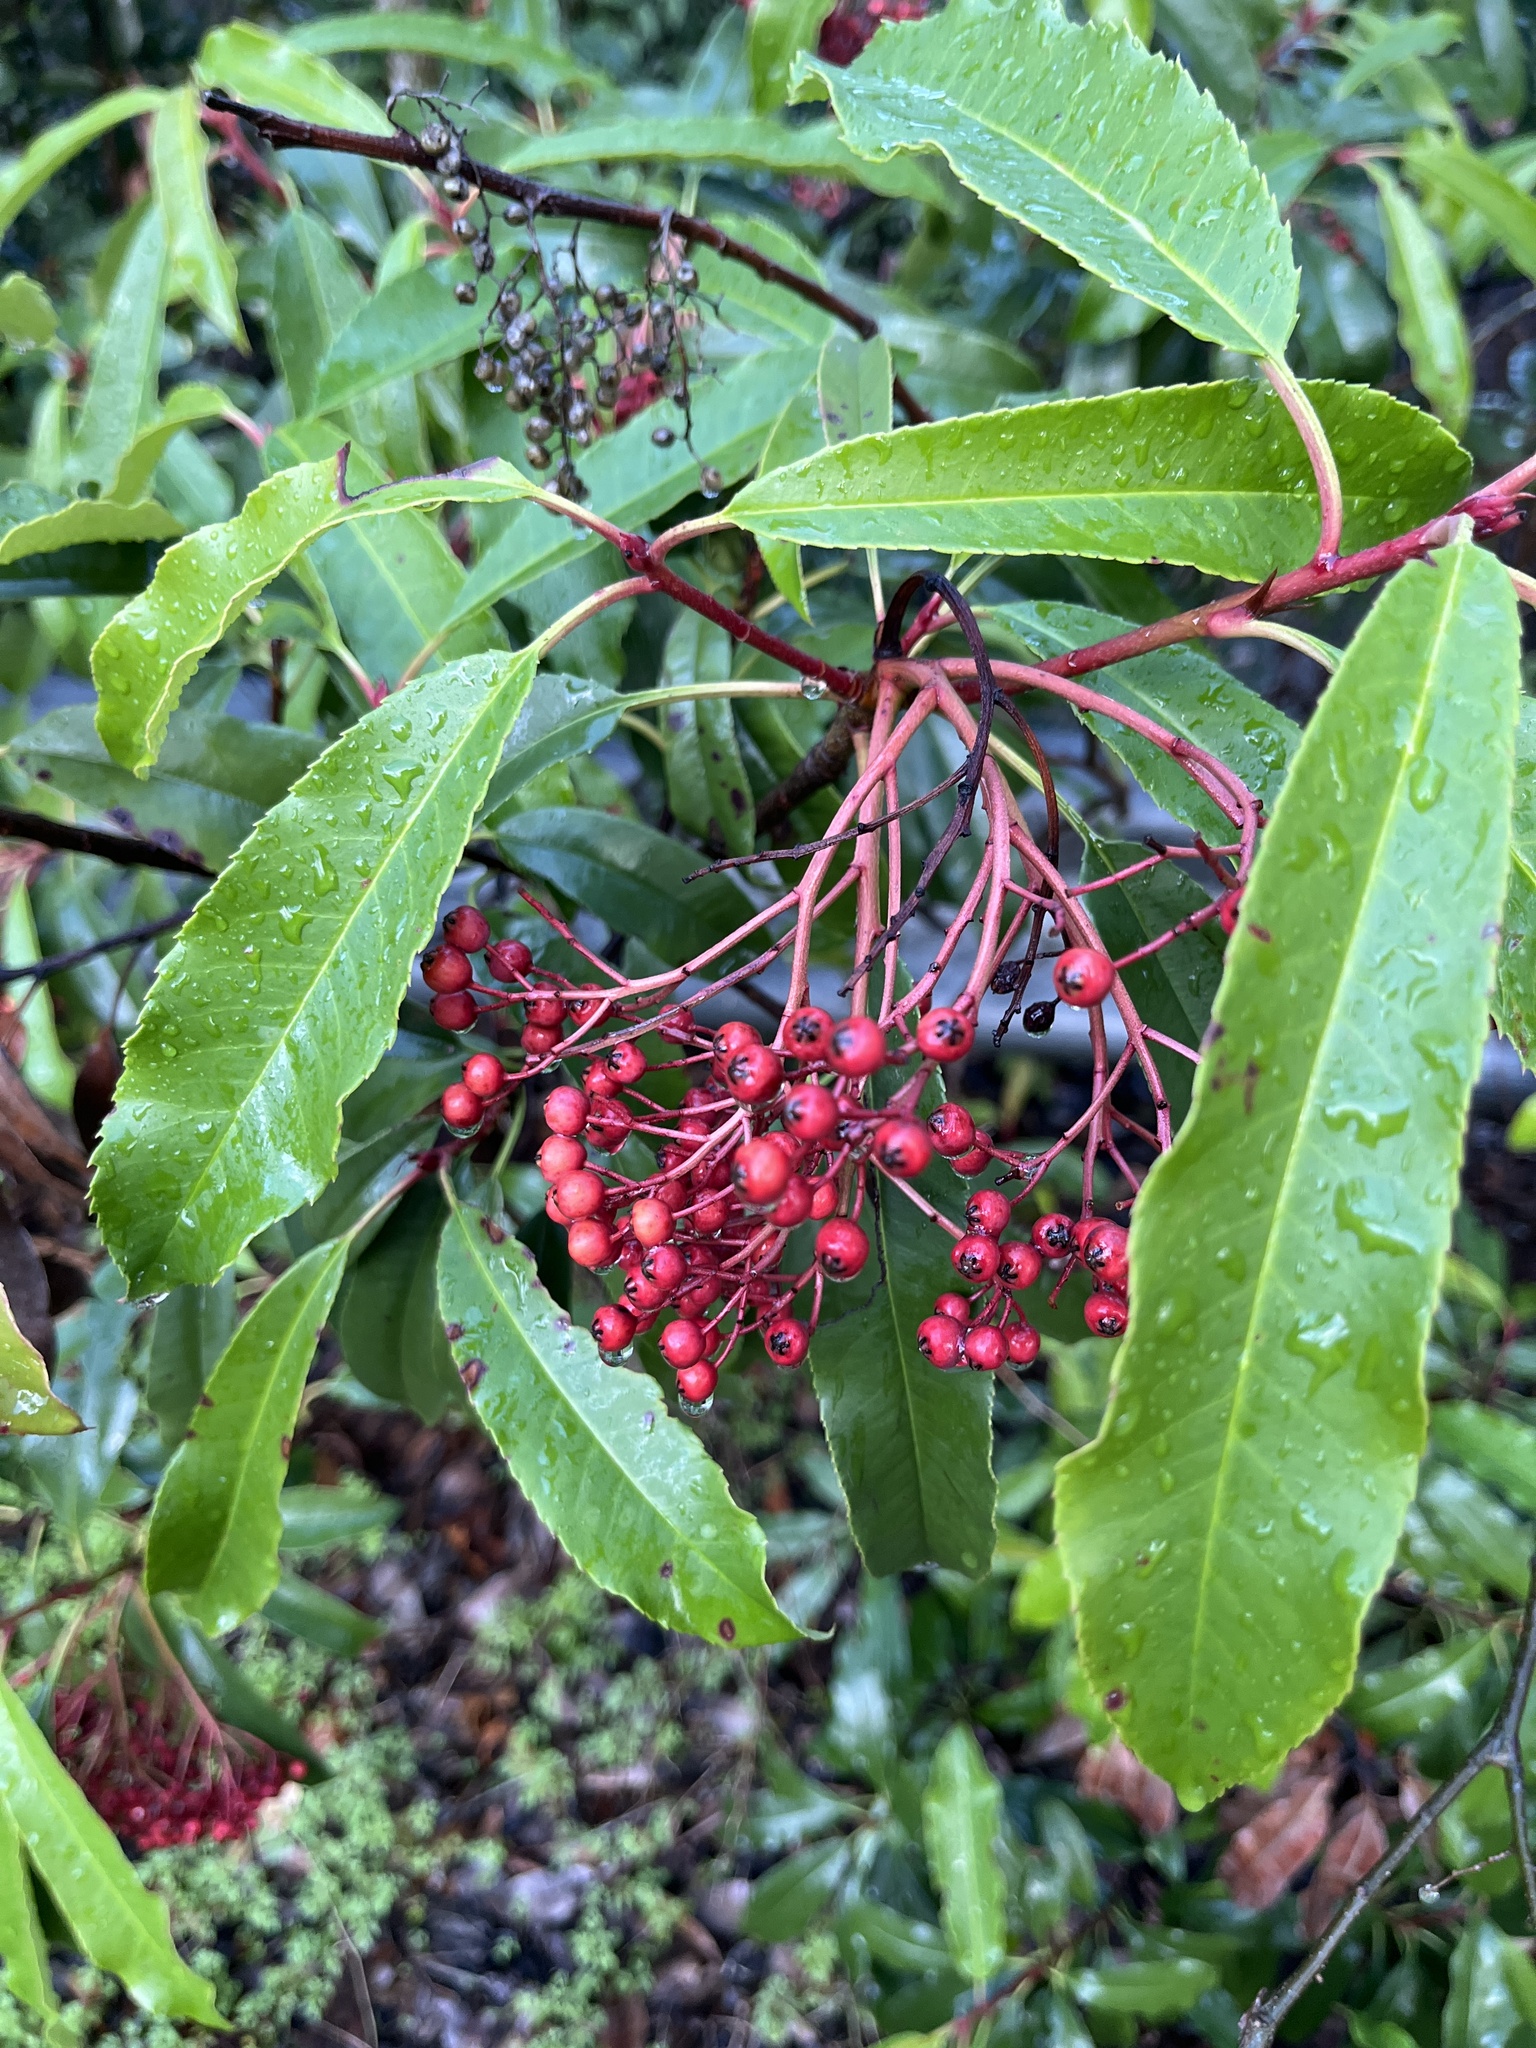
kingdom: Plantae
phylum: Tracheophyta
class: Magnoliopsida
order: Rosales
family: Rosaceae
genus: Photinia
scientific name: Photinia serratifolia
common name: Taiwanese photinia
